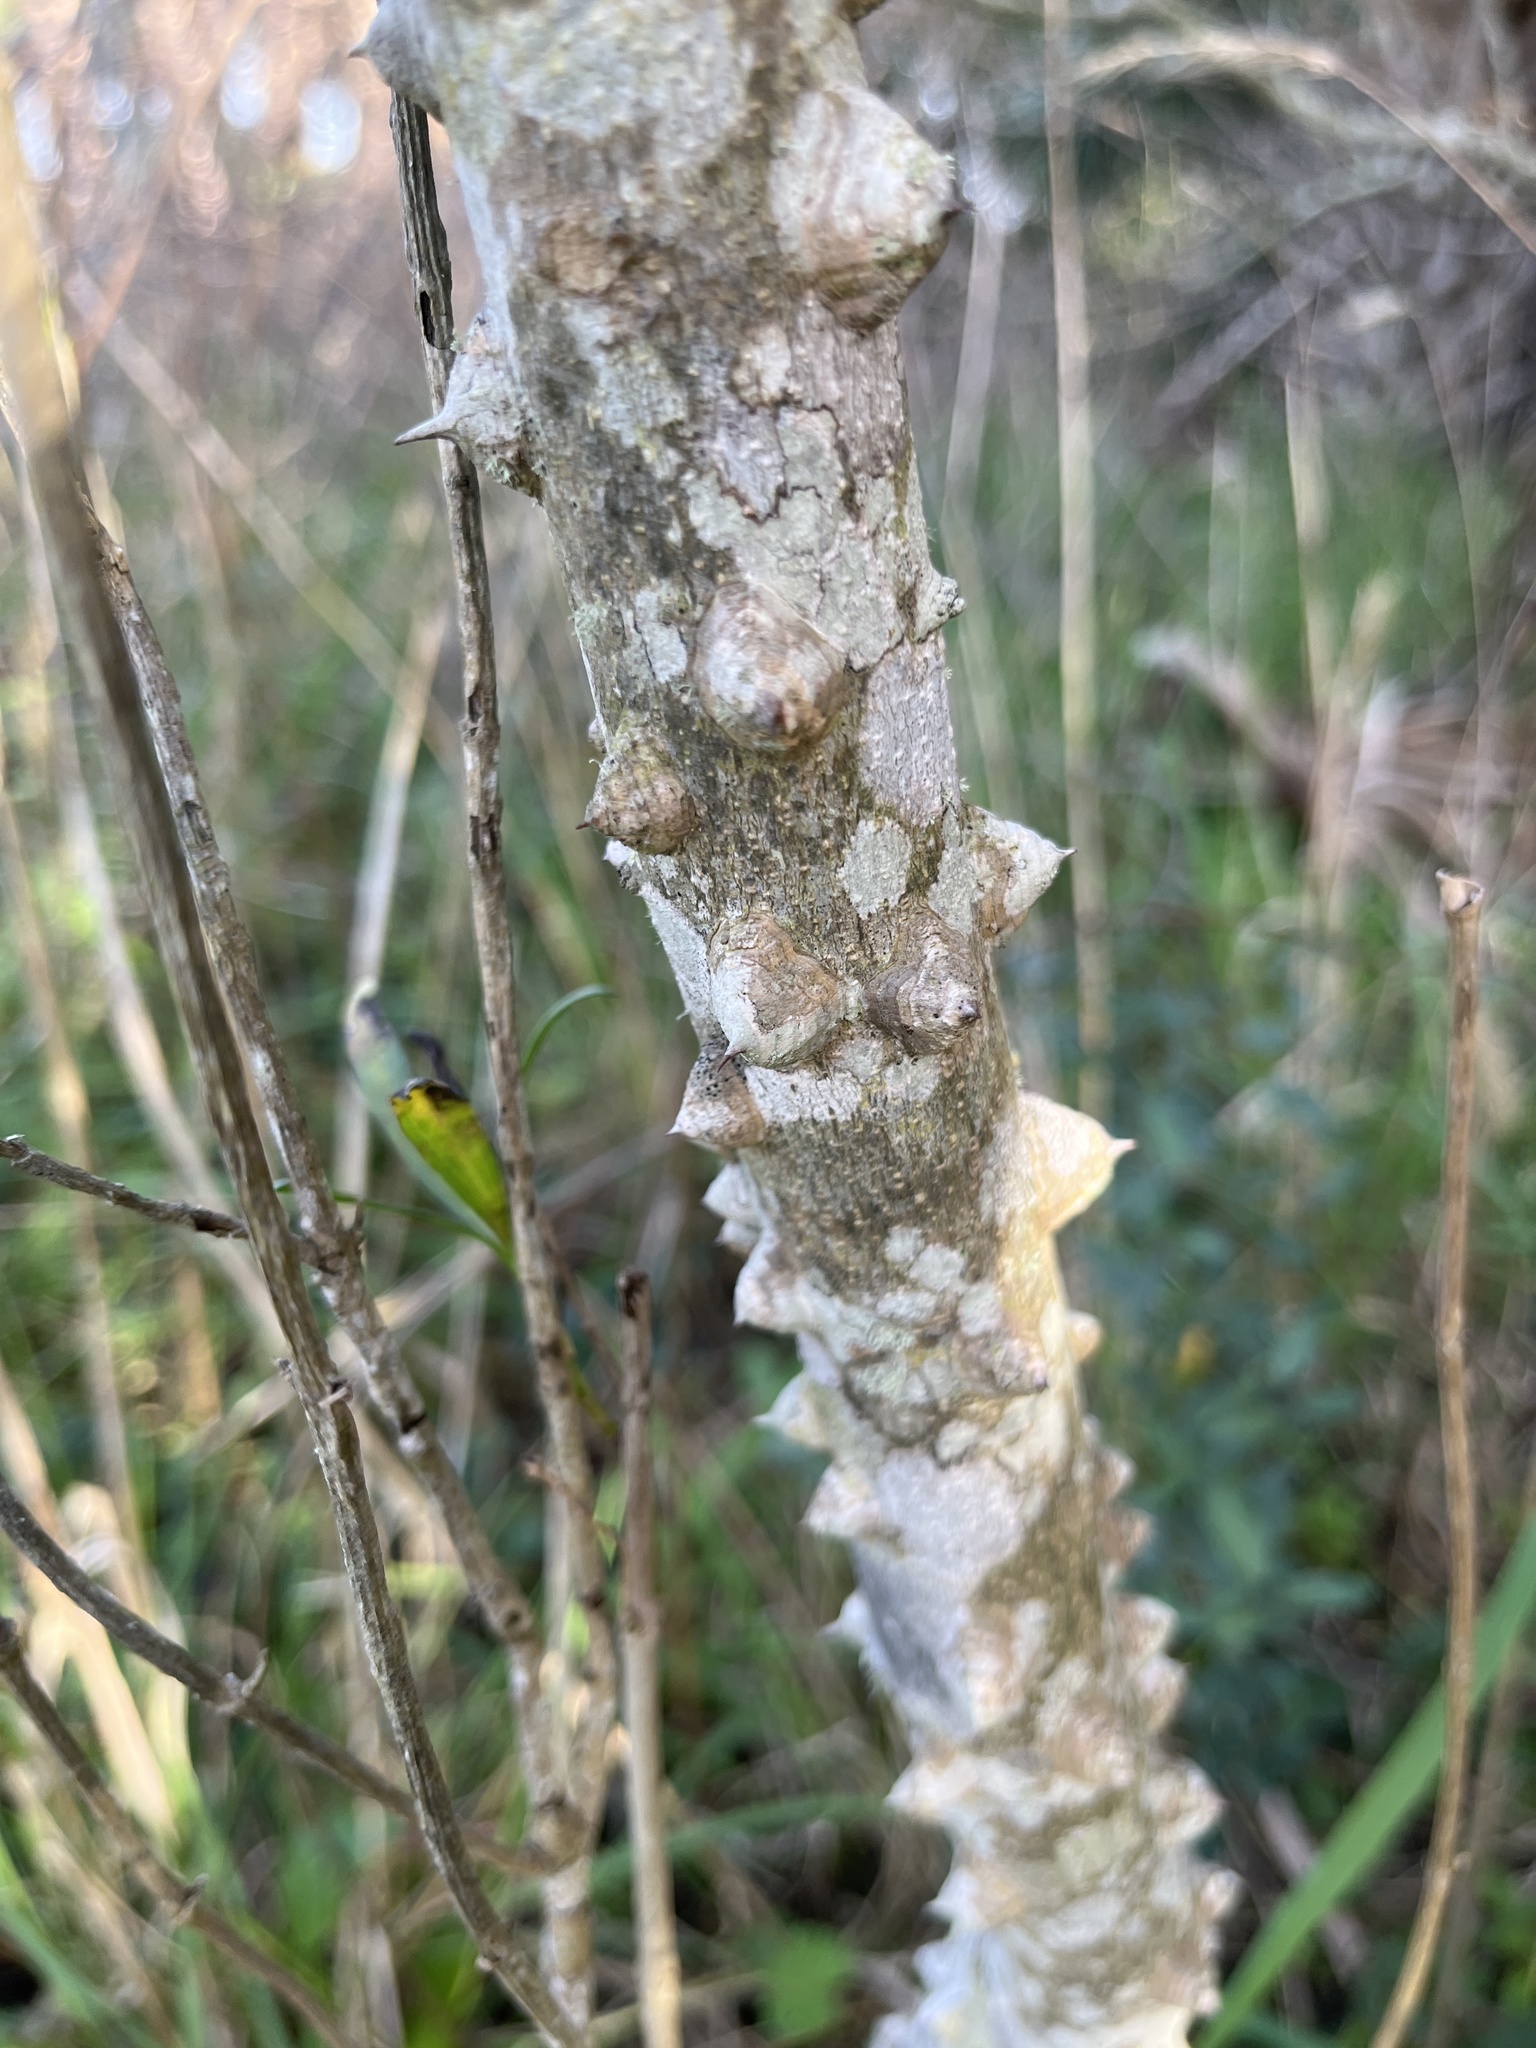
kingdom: Plantae
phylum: Tracheophyta
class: Magnoliopsida
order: Sapindales
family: Rutaceae
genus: Zanthoxylum
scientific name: Zanthoxylum clava-herculis
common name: Hercules'-club
